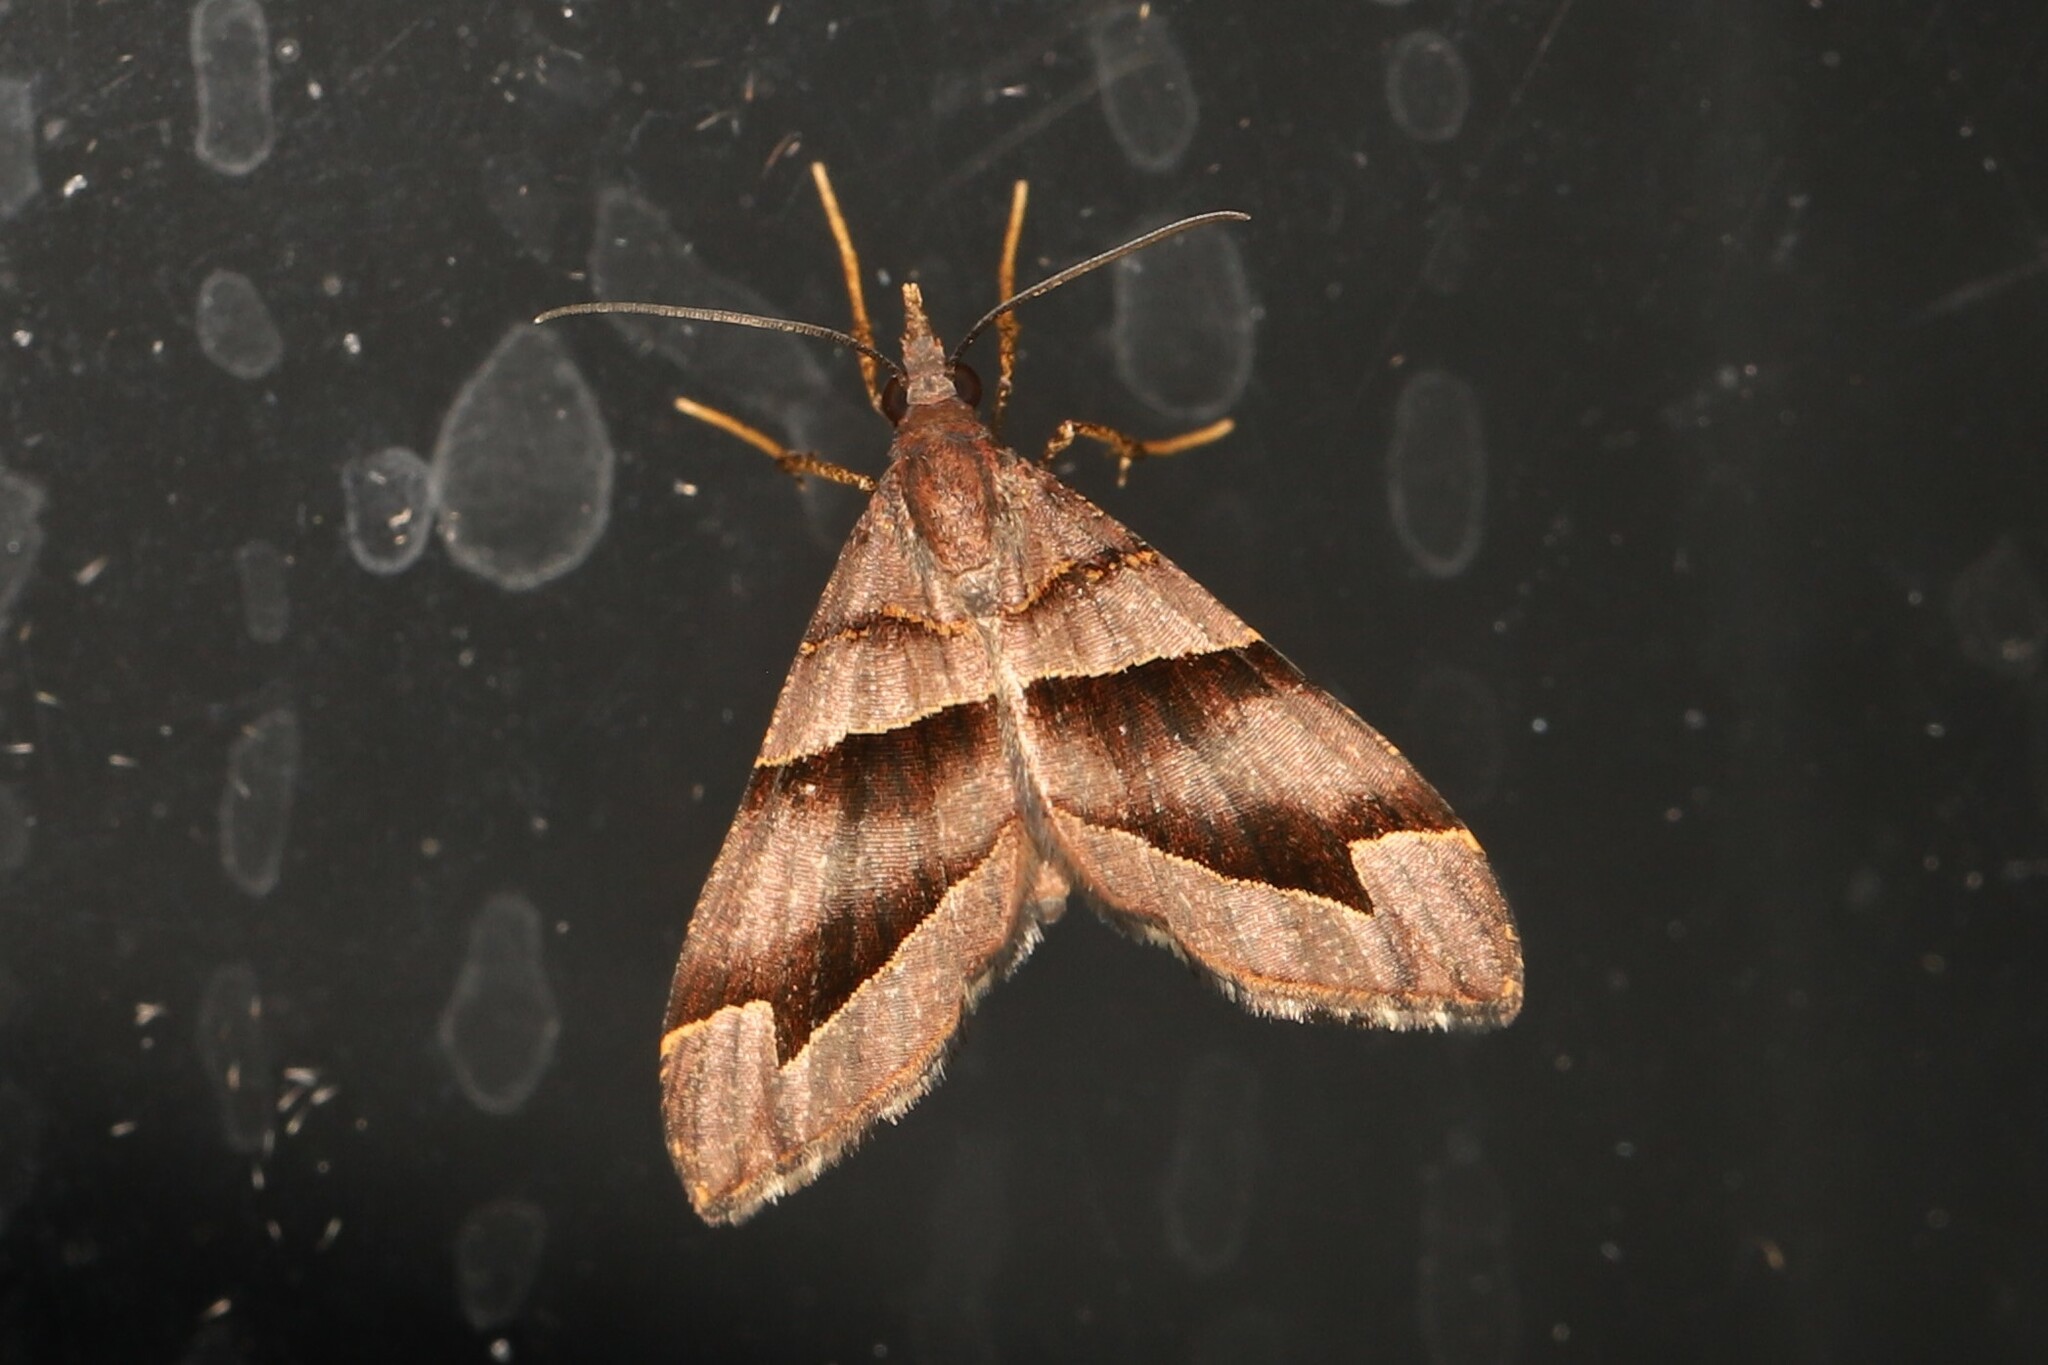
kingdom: Animalia
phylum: Arthropoda
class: Insecta
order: Lepidoptera
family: Geometridae
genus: Psaliodes
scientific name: Psaliodes cronia
